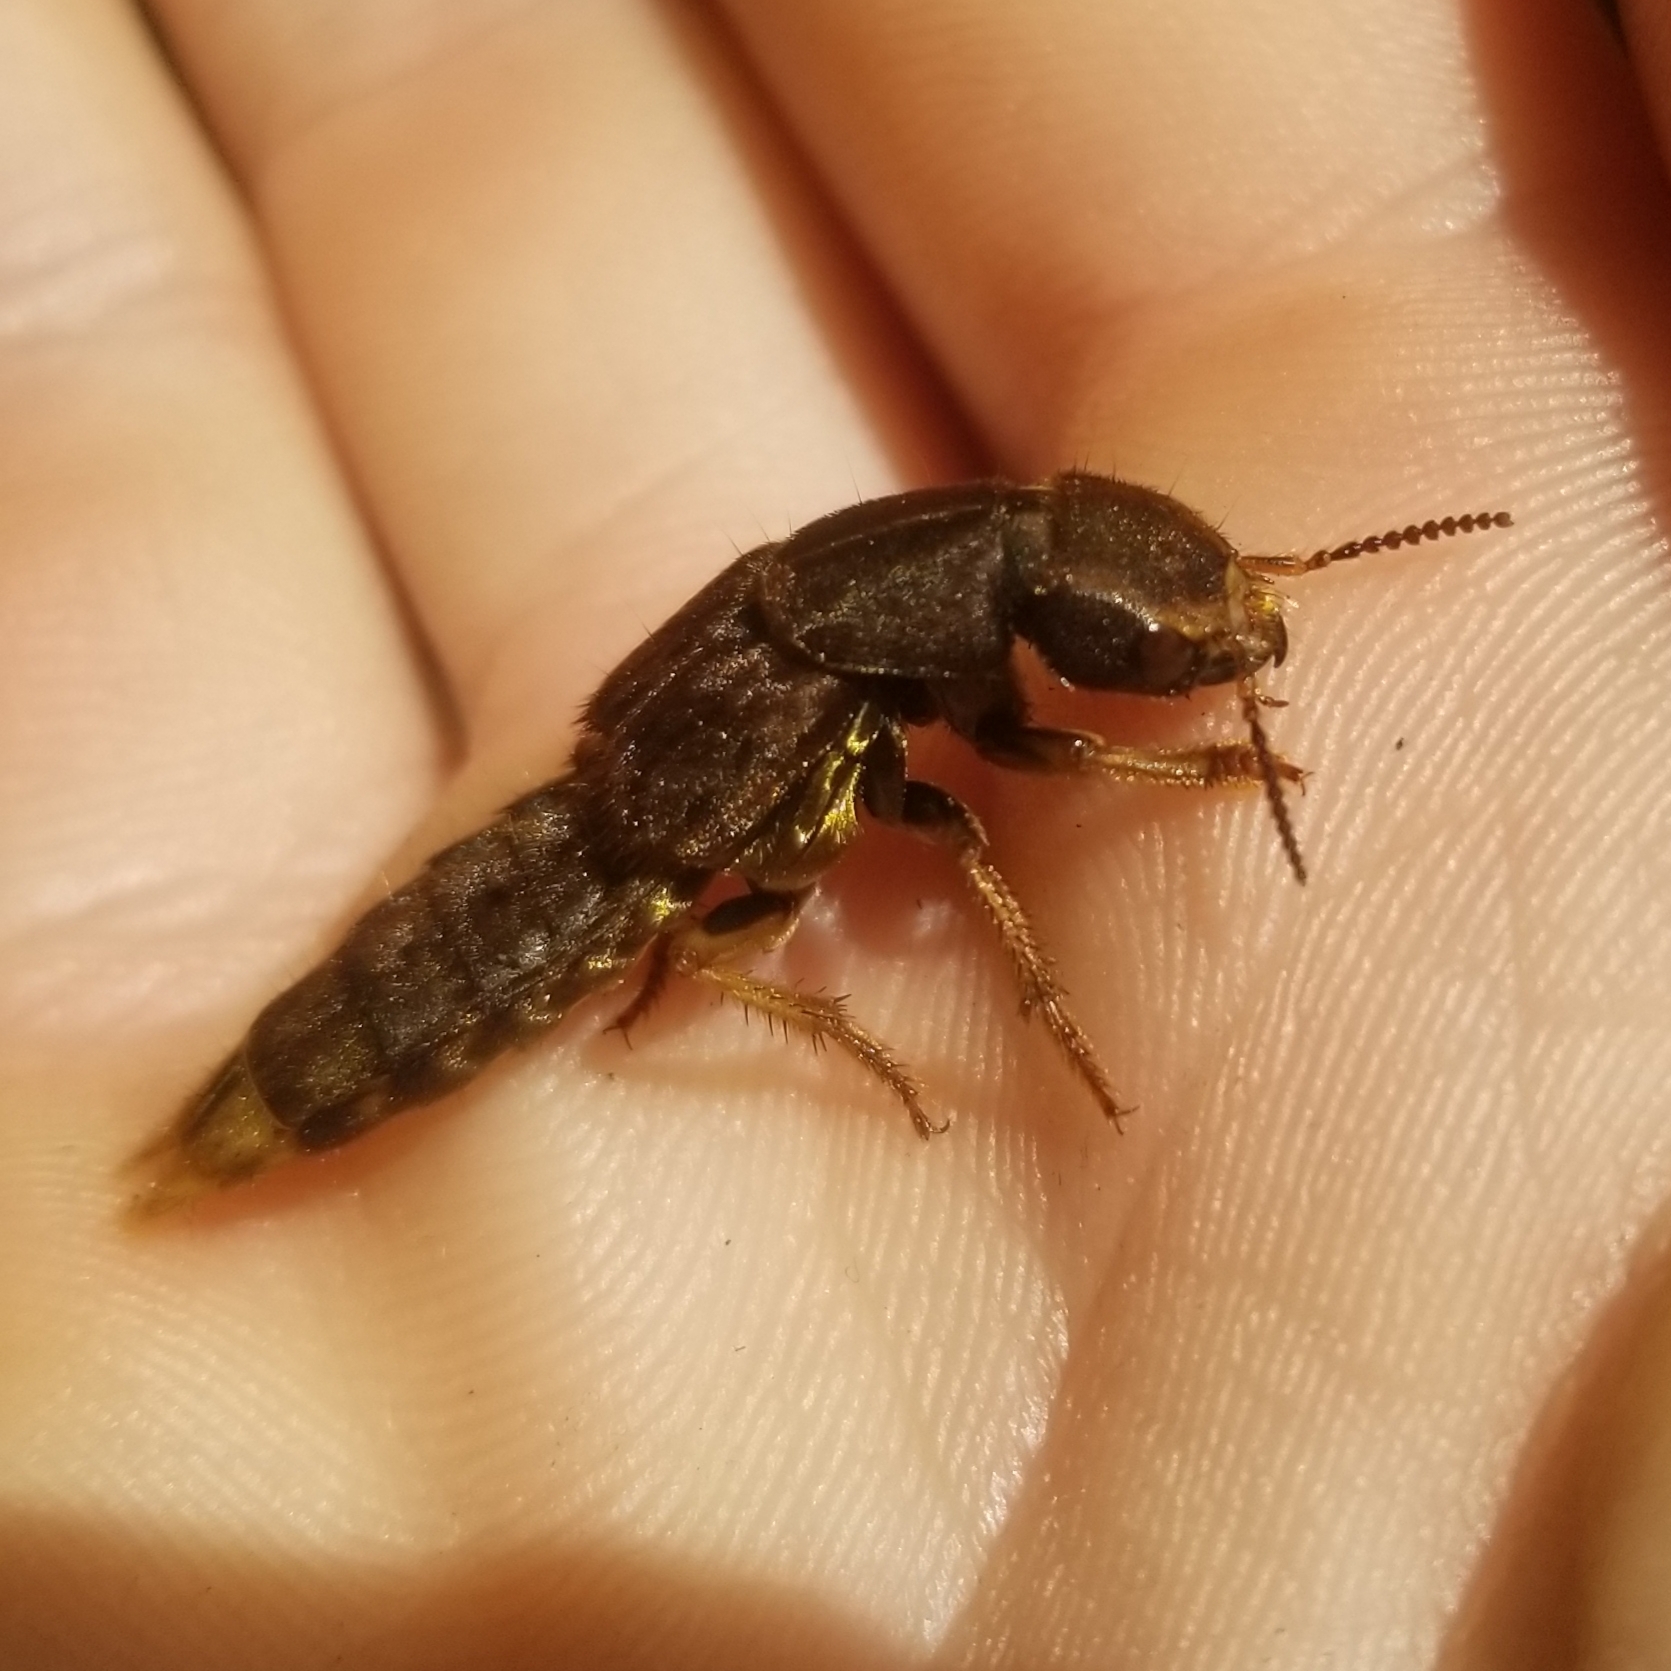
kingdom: Animalia
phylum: Arthropoda
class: Insecta
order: Coleoptera
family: Staphylinidae
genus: Platydracus
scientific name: Platydracus maculosus
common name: Brown rove beetle
